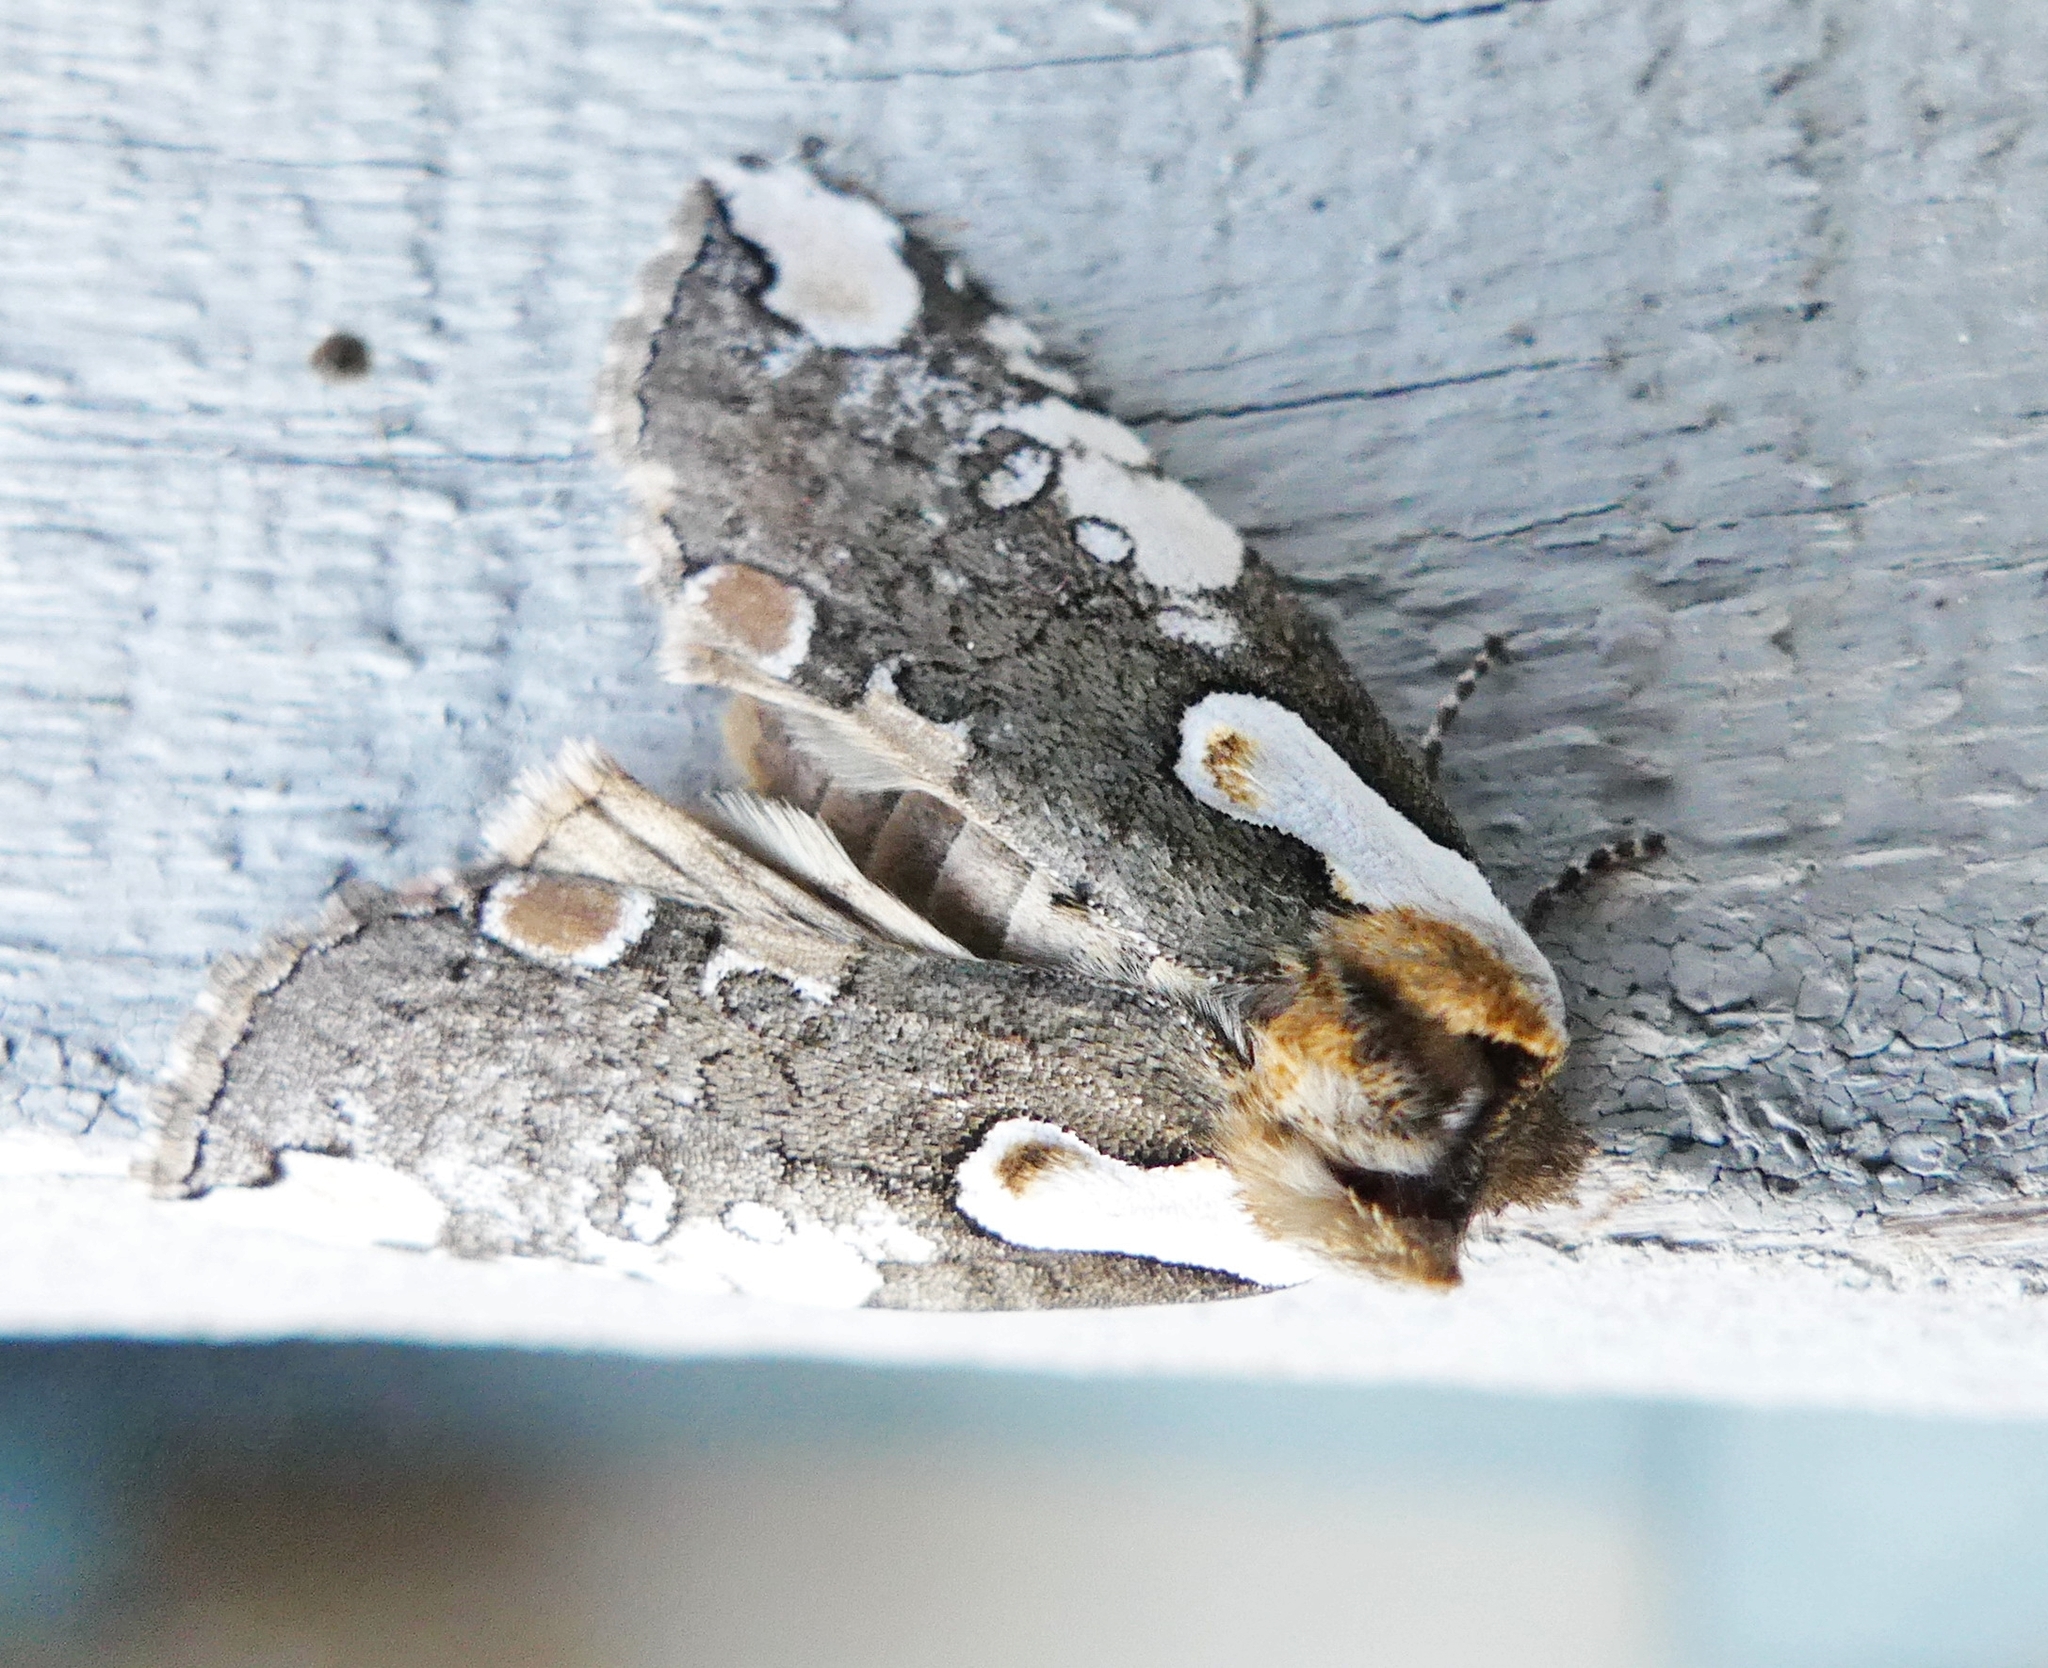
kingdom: Animalia
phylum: Arthropoda
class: Insecta
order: Lepidoptera
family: Drepanidae
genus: Euthyatira
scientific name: Euthyatira pudens
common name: Dogwood thyatirid moth
